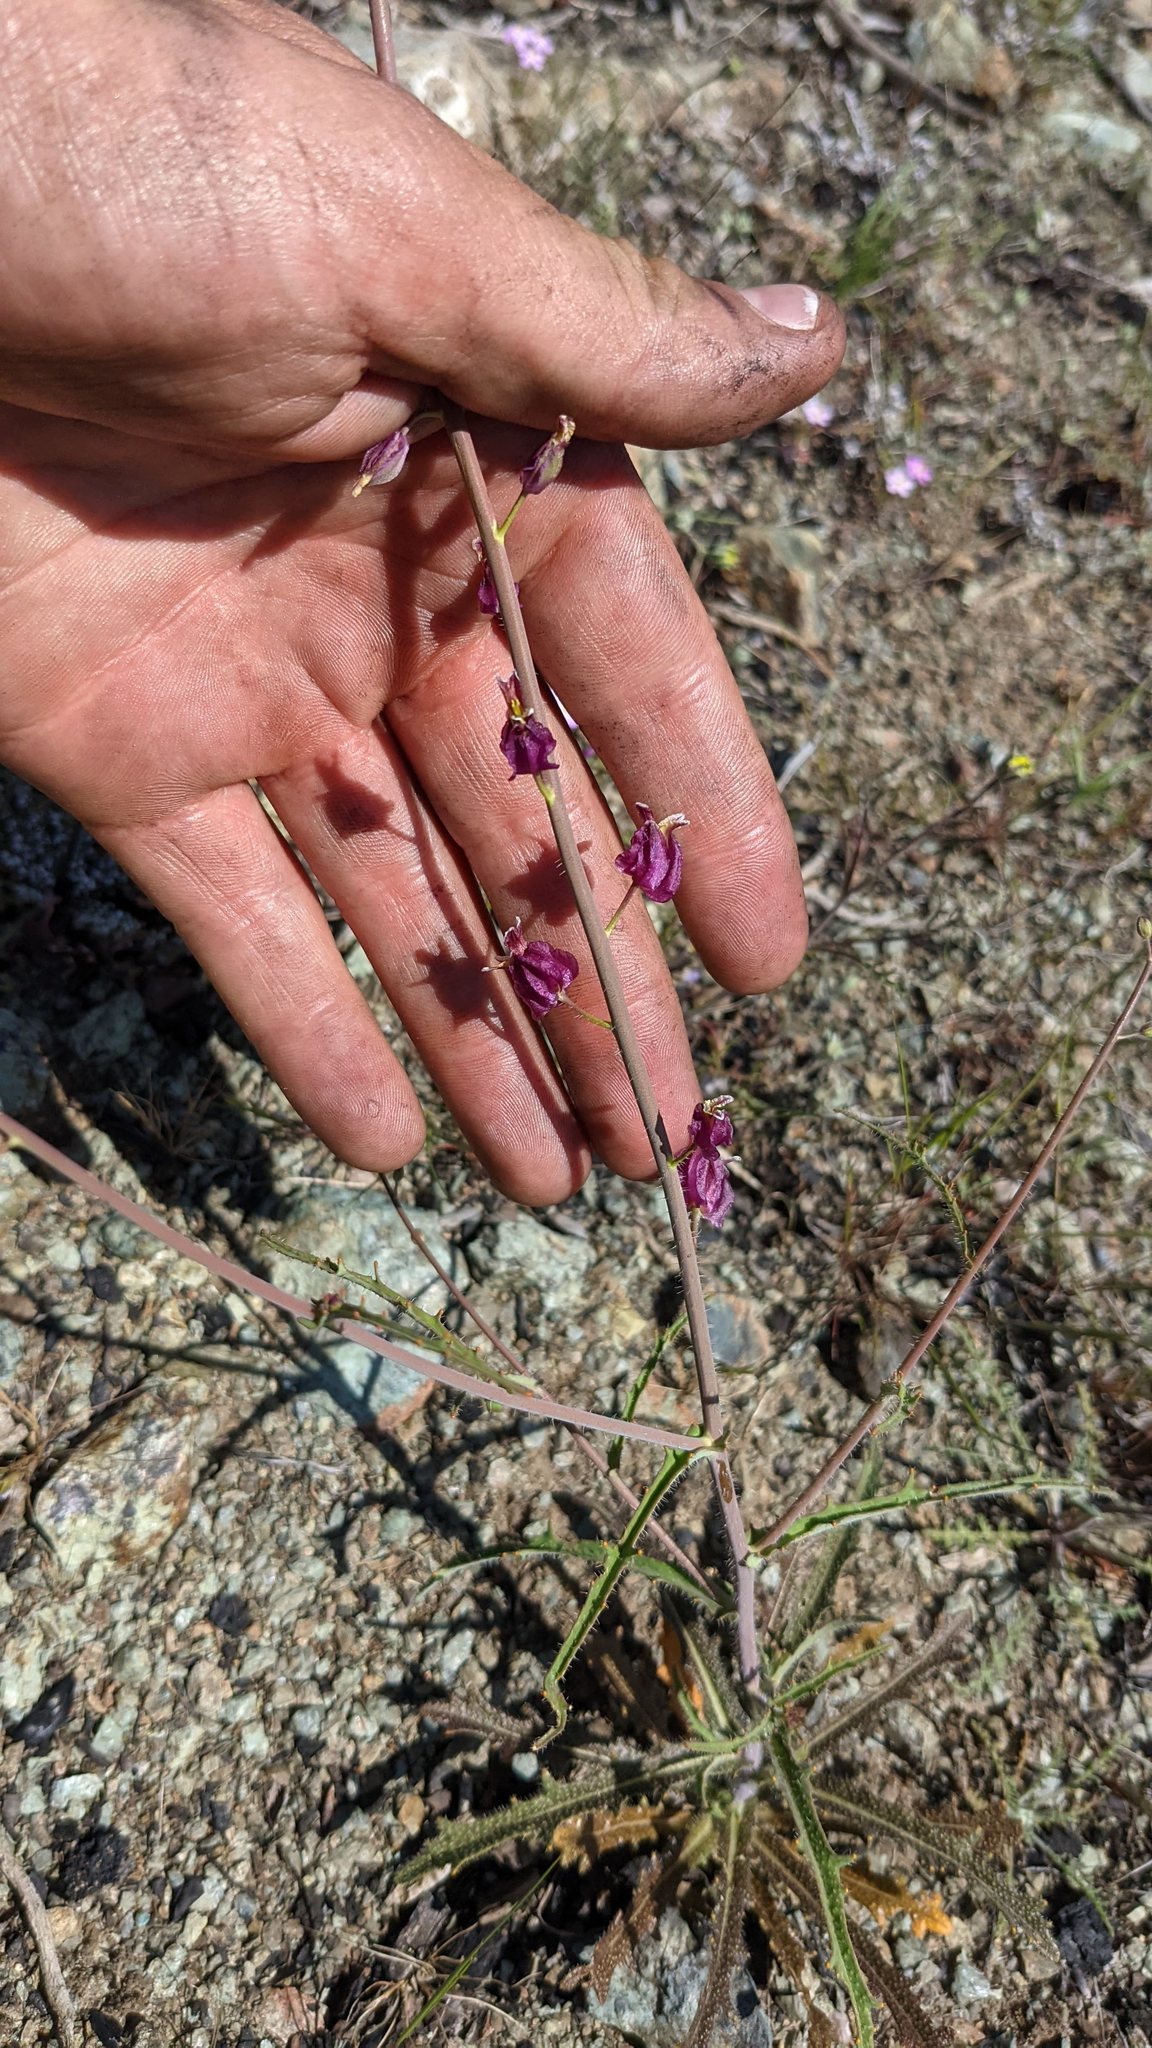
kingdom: Plantae
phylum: Tracheophyta
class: Magnoliopsida
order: Brassicales
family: Brassicaceae
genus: Streptanthus
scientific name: Streptanthus glandulosus
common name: Jewel-flower
